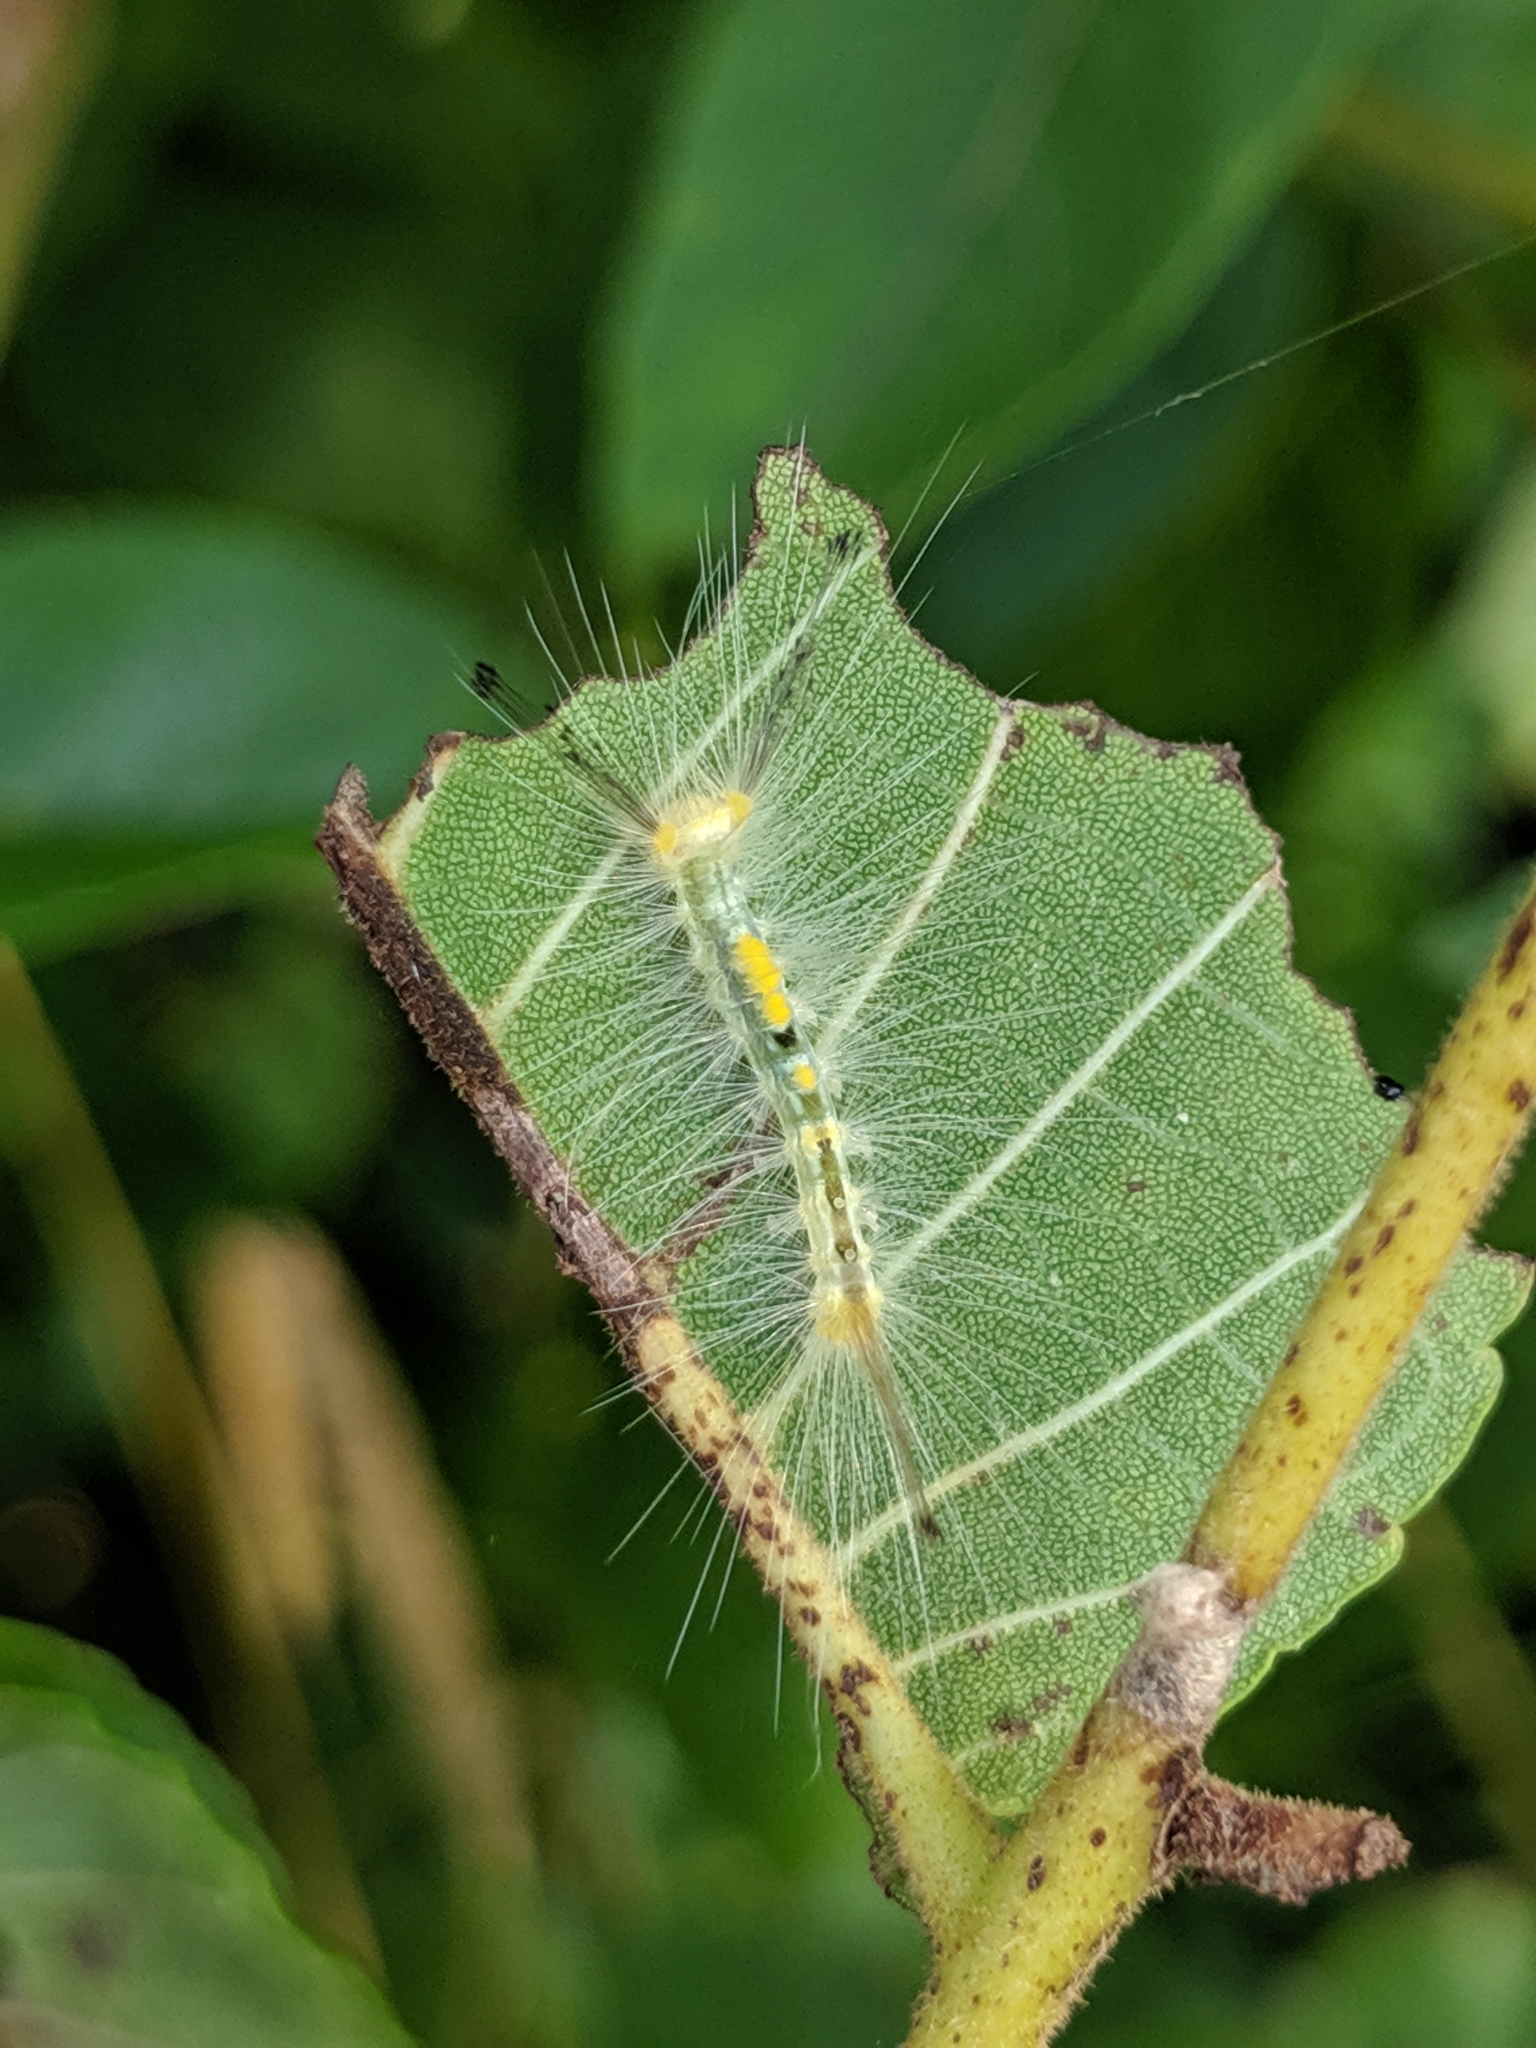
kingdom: Animalia
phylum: Arthropoda
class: Insecta
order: Lepidoptera
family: Erebidae
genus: Orgyia
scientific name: Orgyia definita
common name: Definite tussock moth
